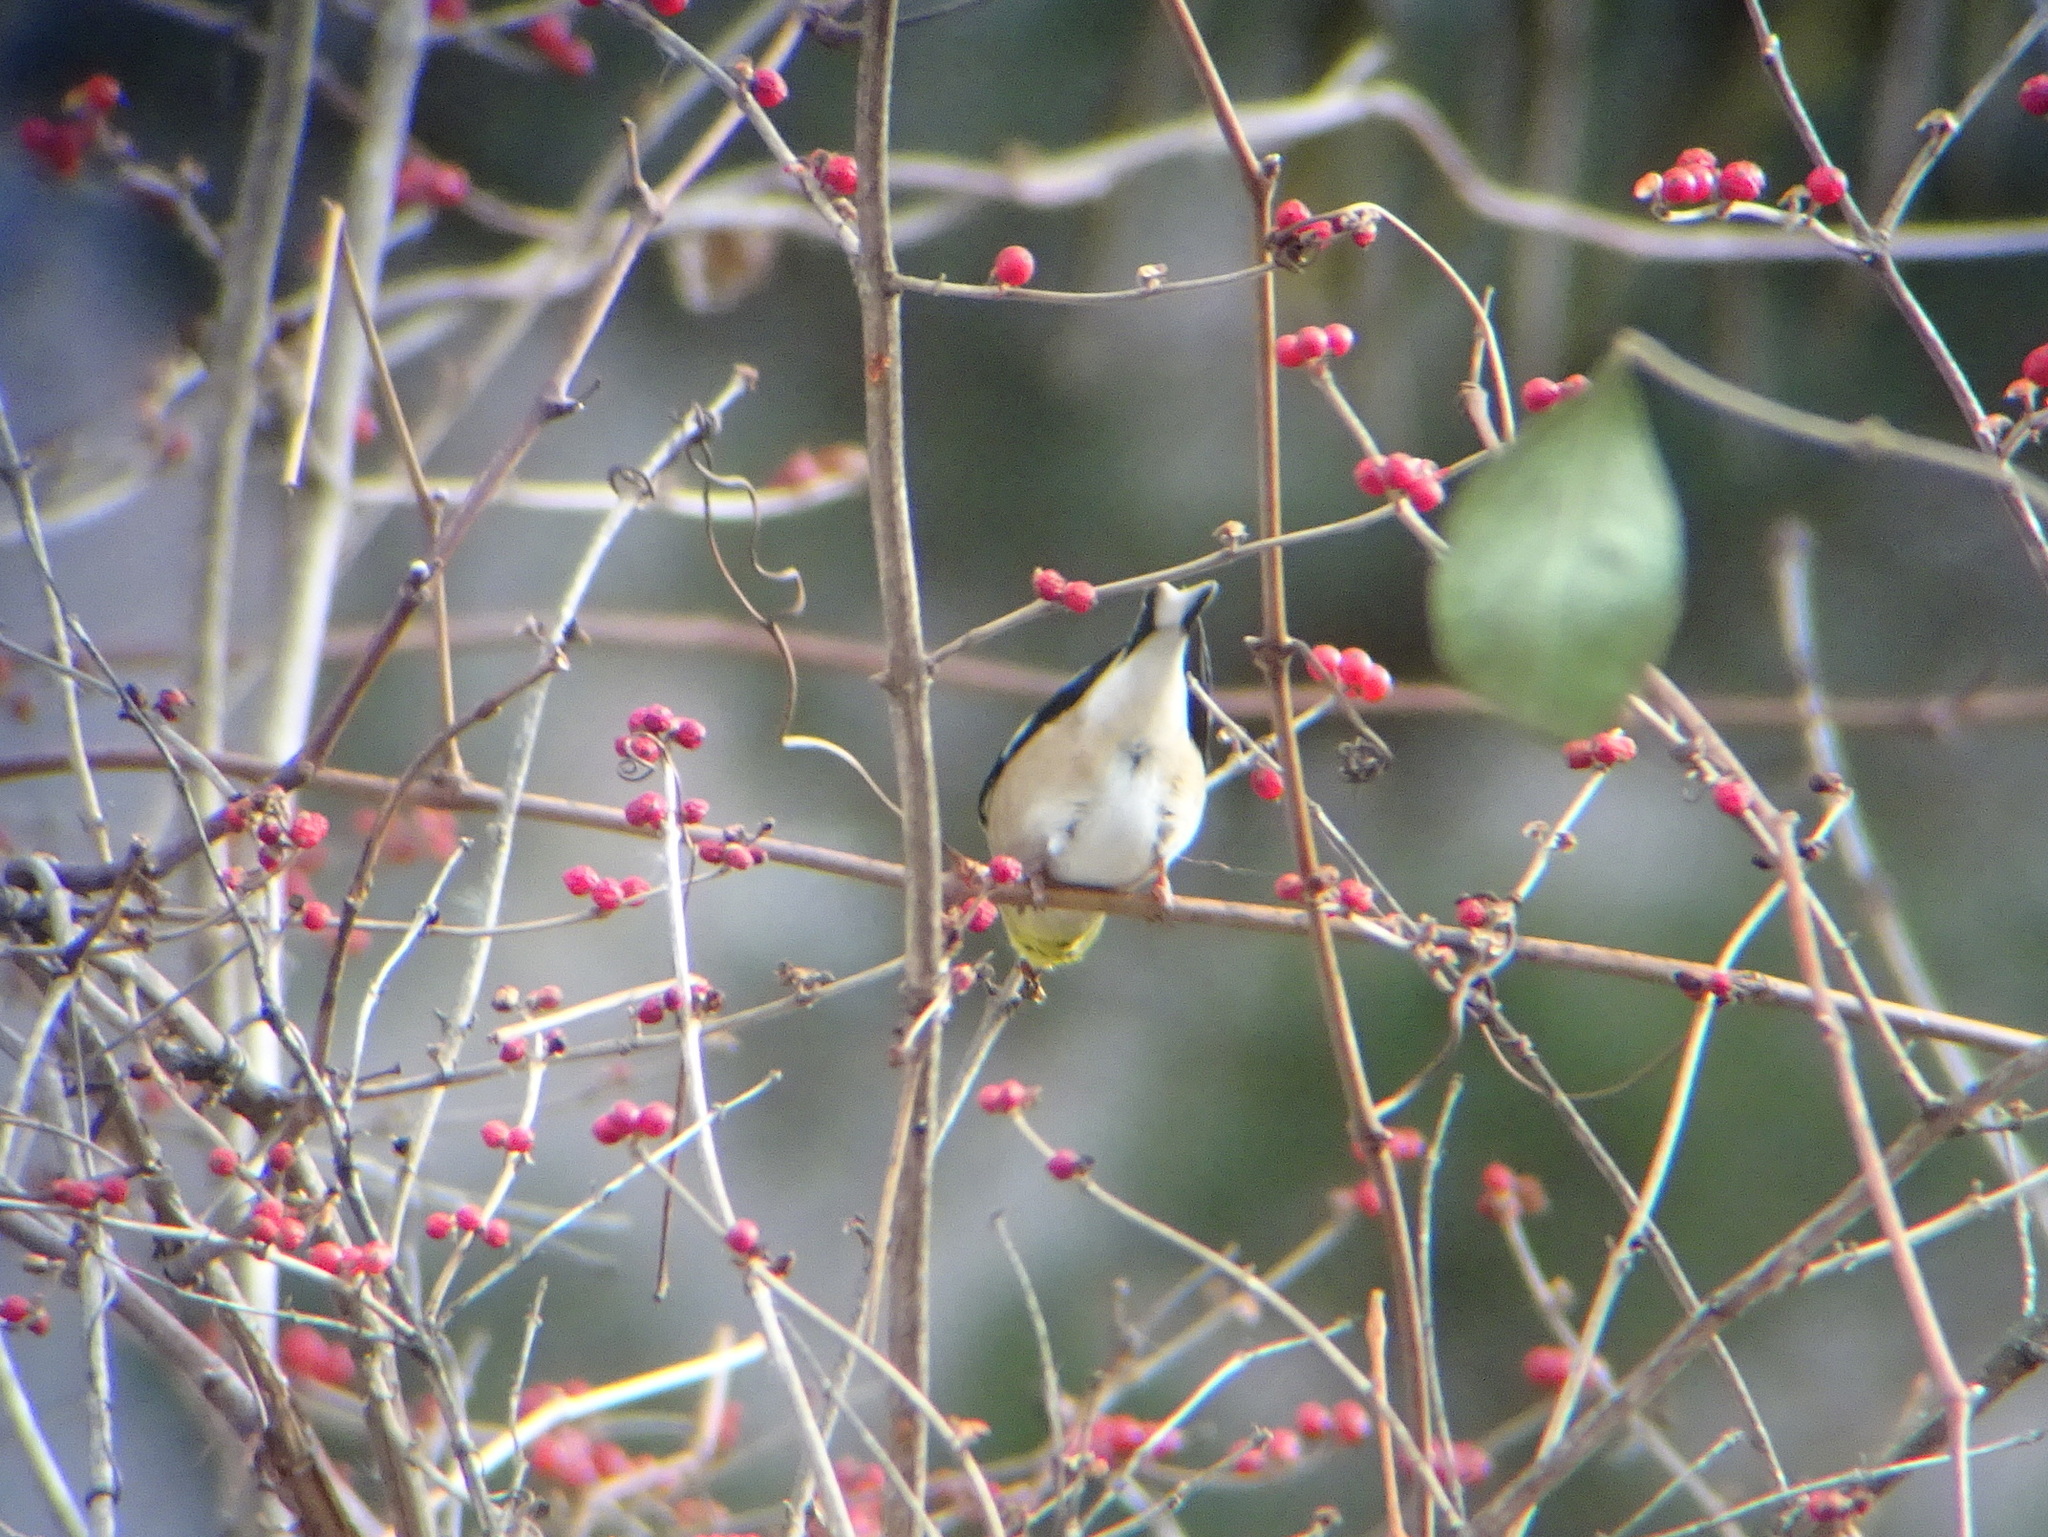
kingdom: Animalia
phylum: Chordata
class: Aves
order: Passeriformes
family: Fringillidae
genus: Spinus
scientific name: Spinus tristis
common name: American goldfinch
